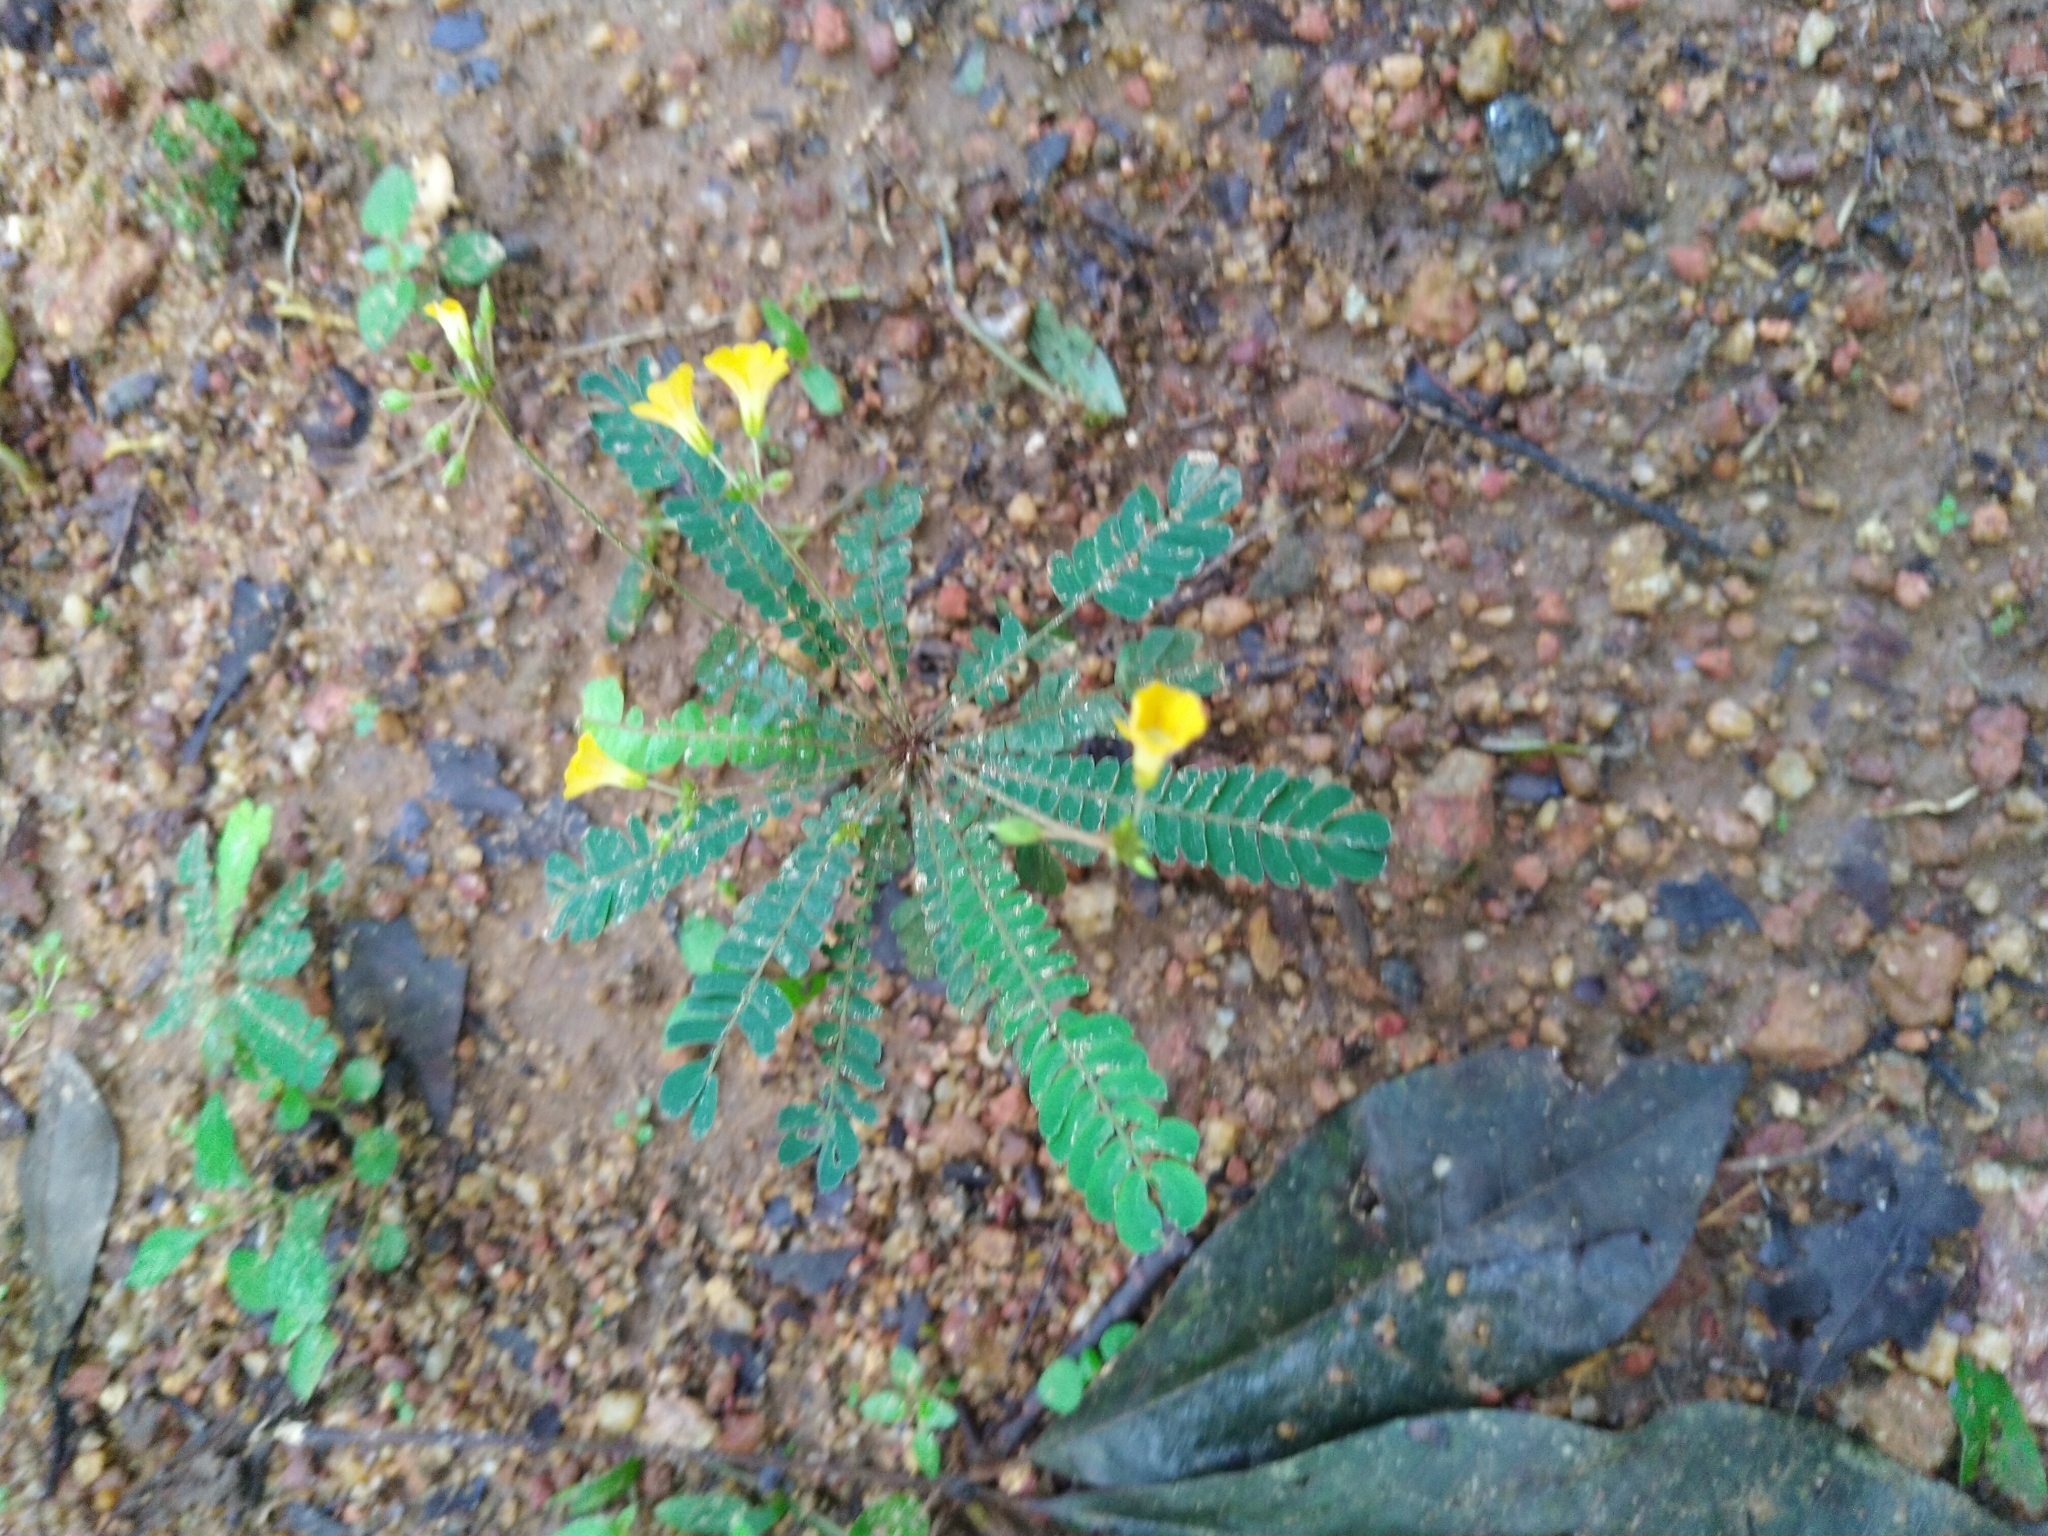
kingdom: Plantae
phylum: Tracheophyta
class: Magnoliopsida
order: Oxalidales
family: Oxalidaceae
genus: Biophytum
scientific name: Biophytum sensitivum
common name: Lifeplant
